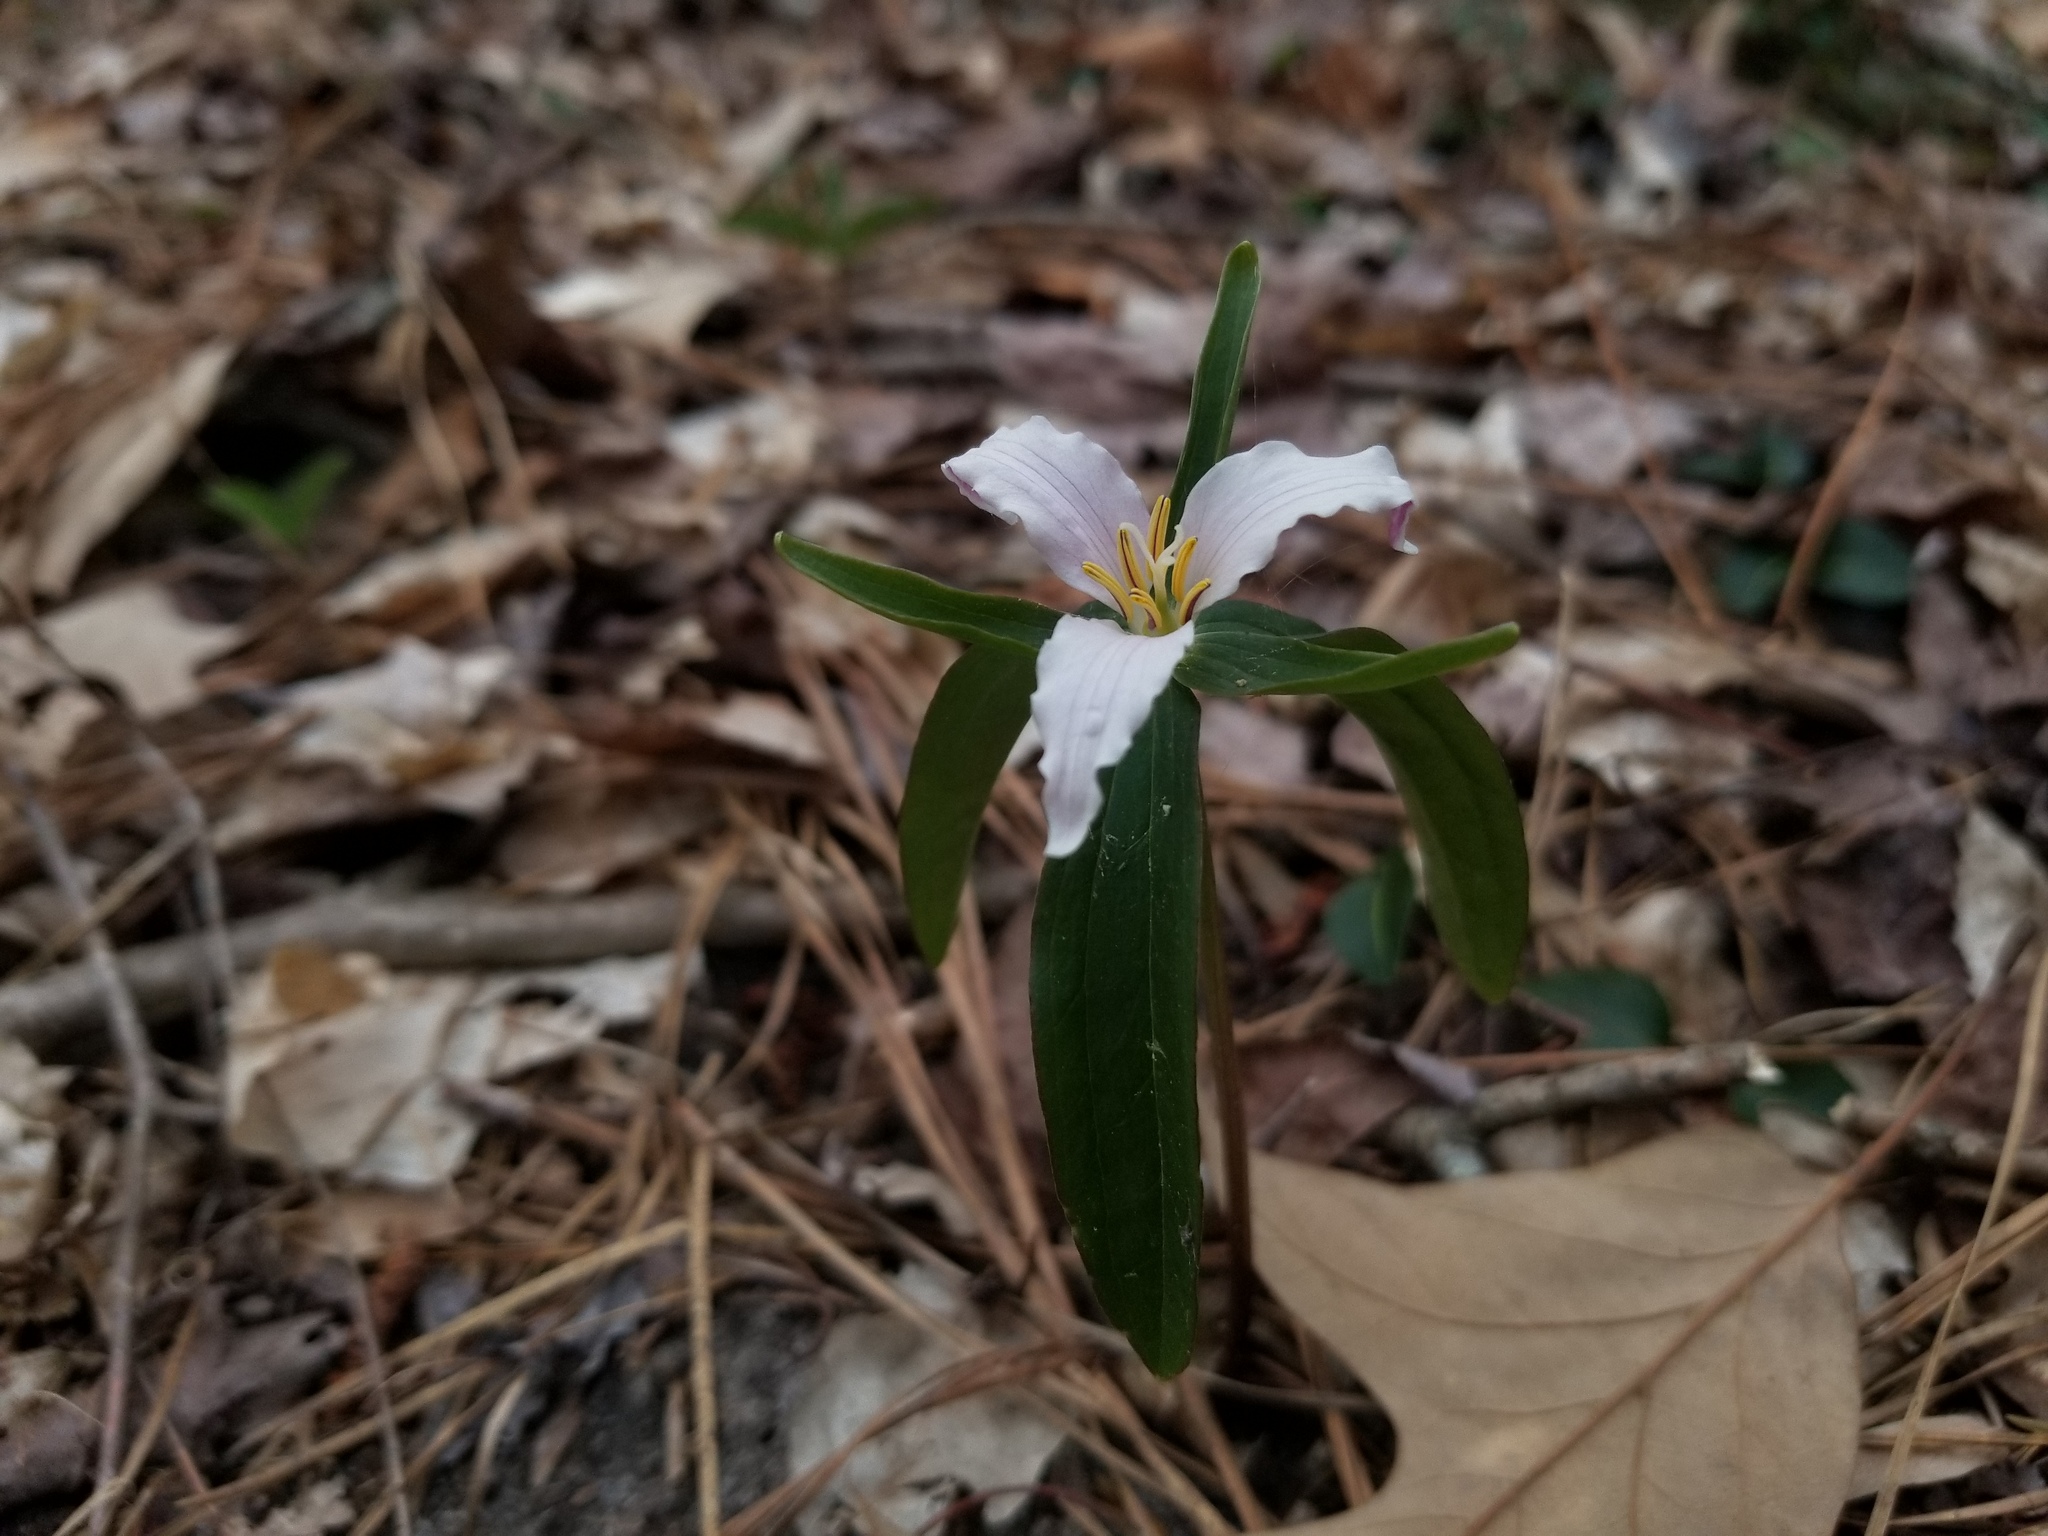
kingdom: Plantae
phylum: Tracheophyta
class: Liliopsida
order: Liliales
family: Melanthiaceae
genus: Trillium
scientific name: Trillium pusillum
